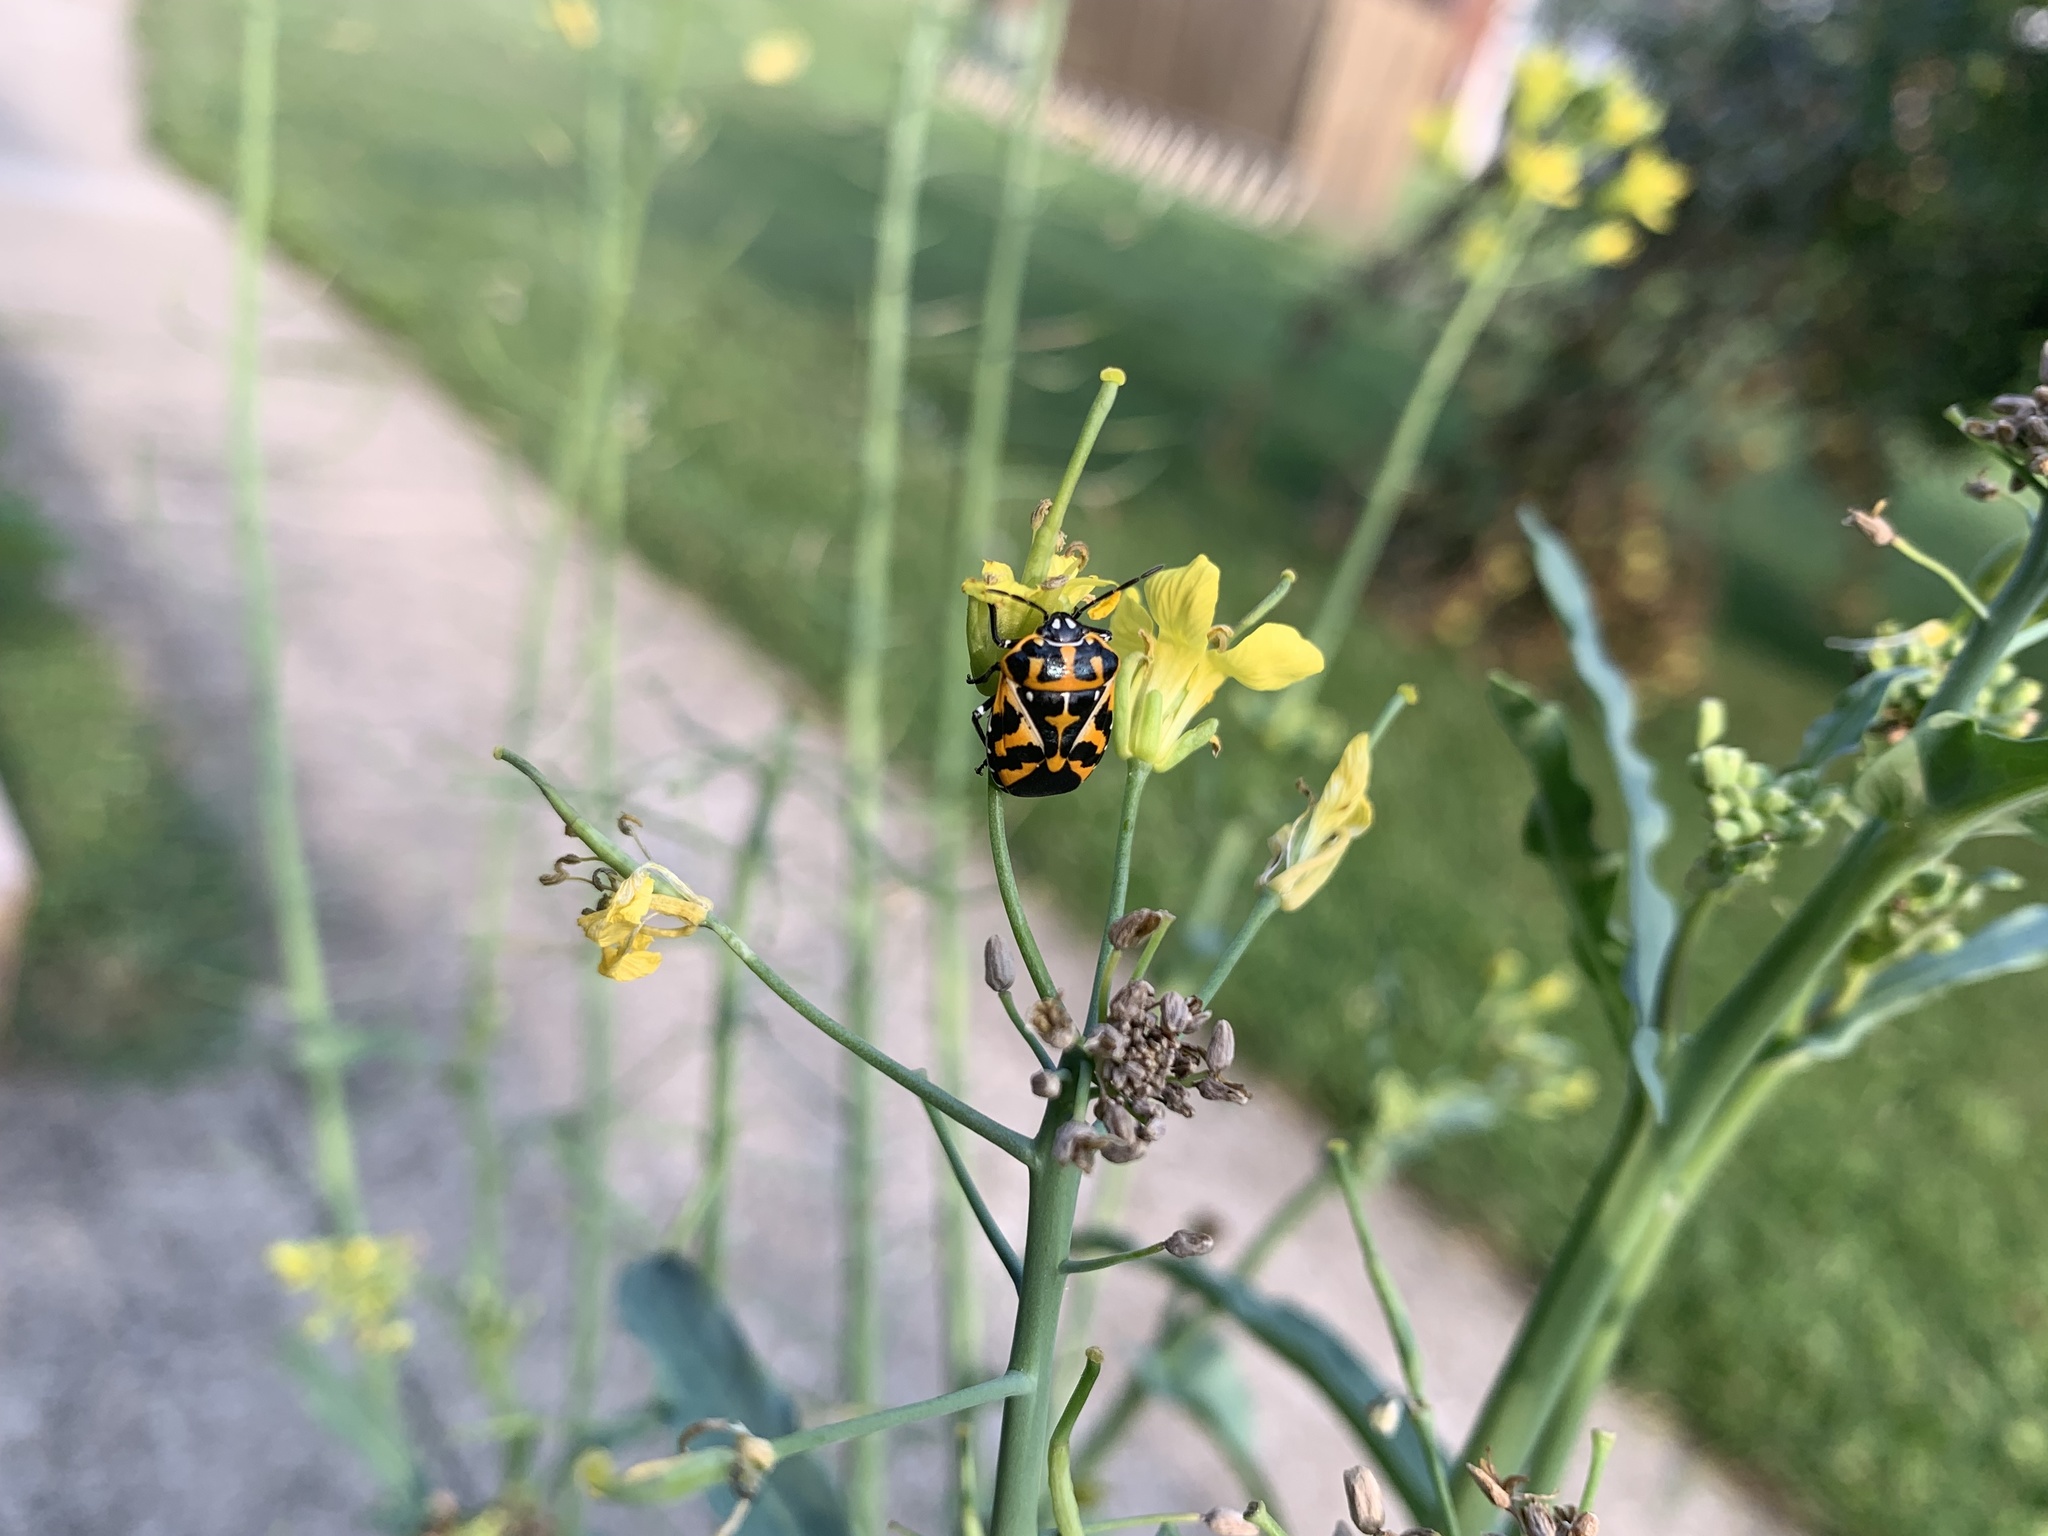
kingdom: Animalia
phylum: Arthropoda
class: Insecta
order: Hemiptera
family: Pentatomidae
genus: Murgantia
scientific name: Murgantia histrionica
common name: Harlequin bug
